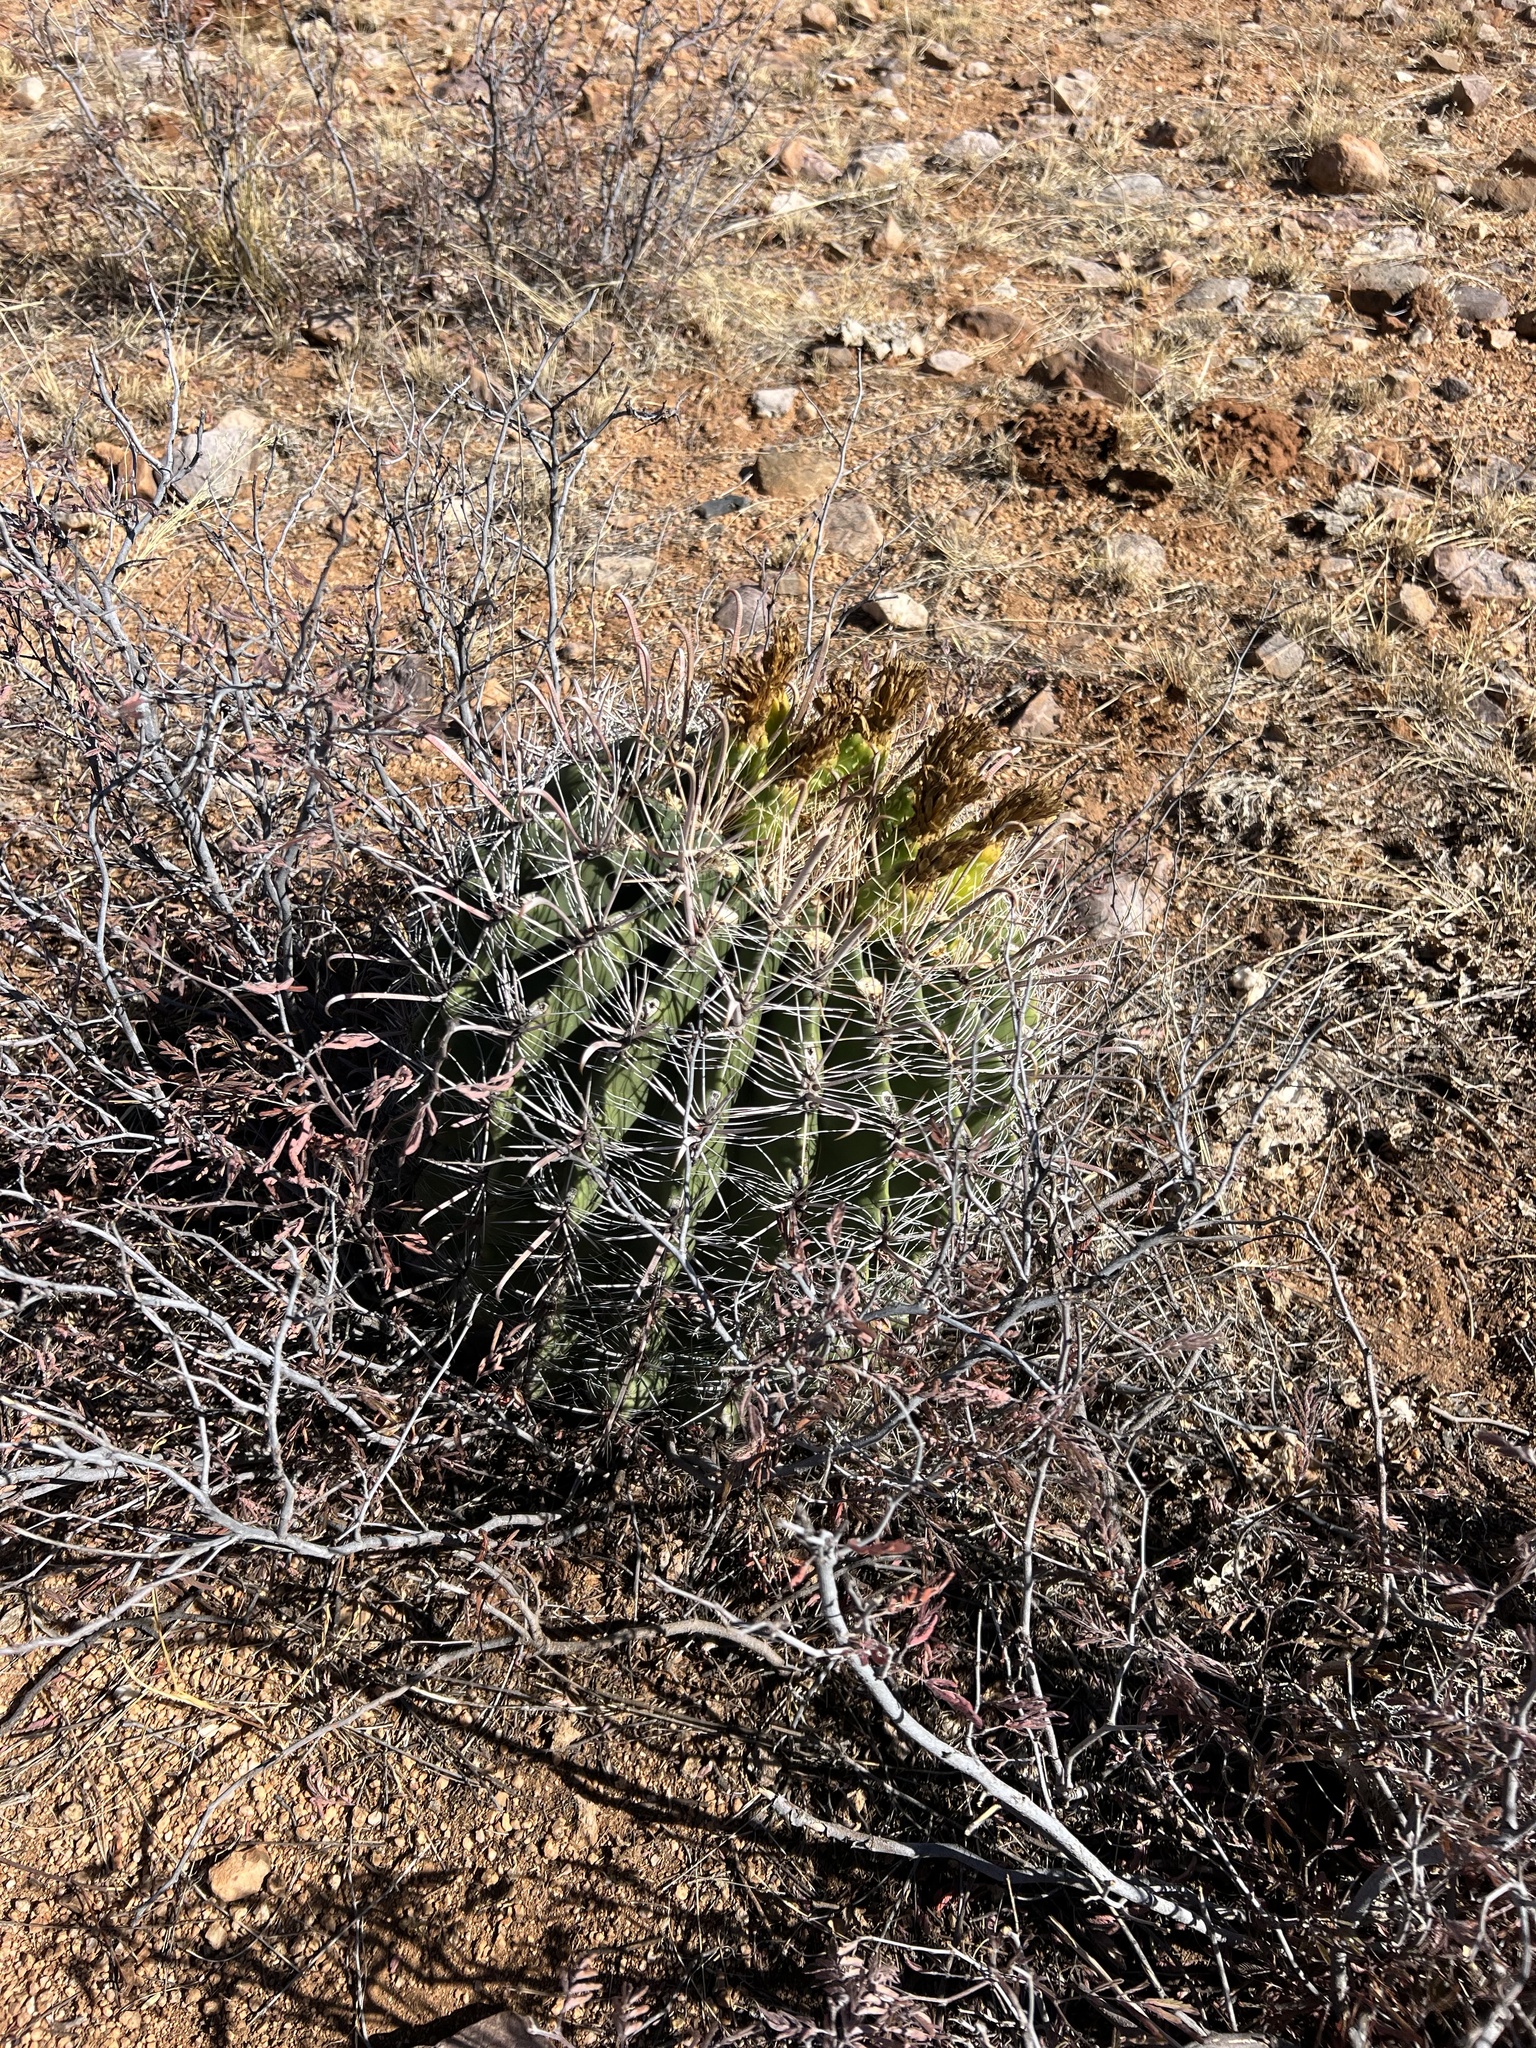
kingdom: Plantae
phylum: Tracheophyta
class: Magnoliopsida
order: Caryophyllales
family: Cactaceae
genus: Ferocactus
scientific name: Ferocactus wislizeni
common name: Candy barrel cactus
